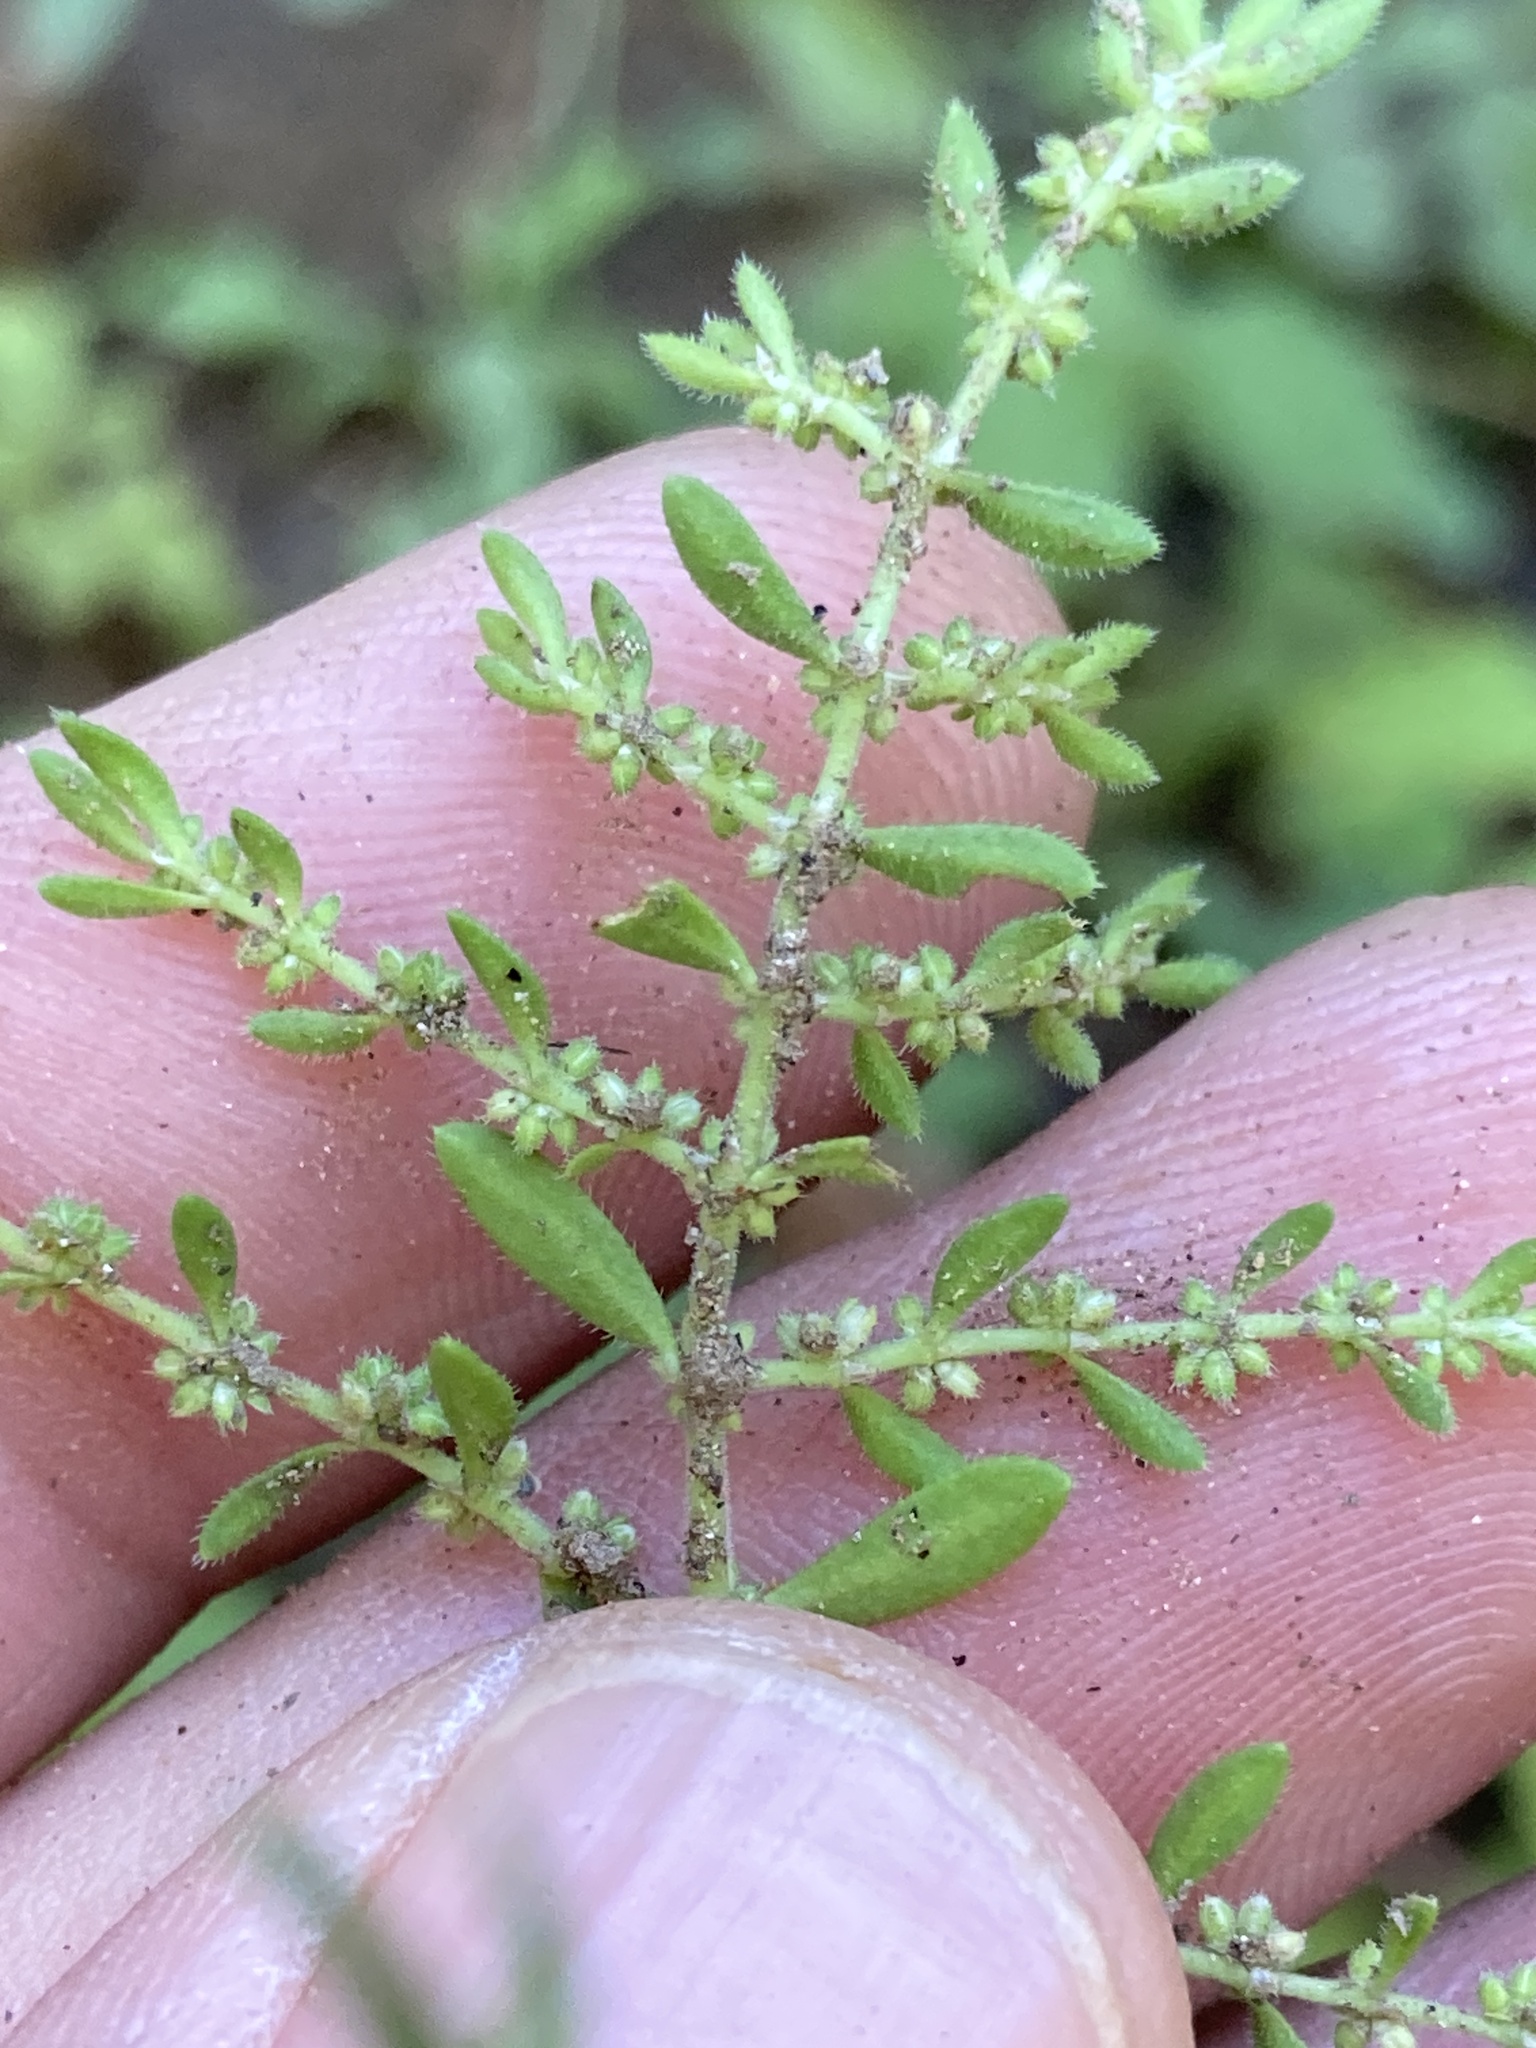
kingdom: Plantae
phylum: Tracheophyta
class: Magnoliopsida
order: Caryophyllales
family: Caryophyllaceae
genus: Herniaria
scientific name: Herniaria hirsuta
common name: Hairy rupturewort
